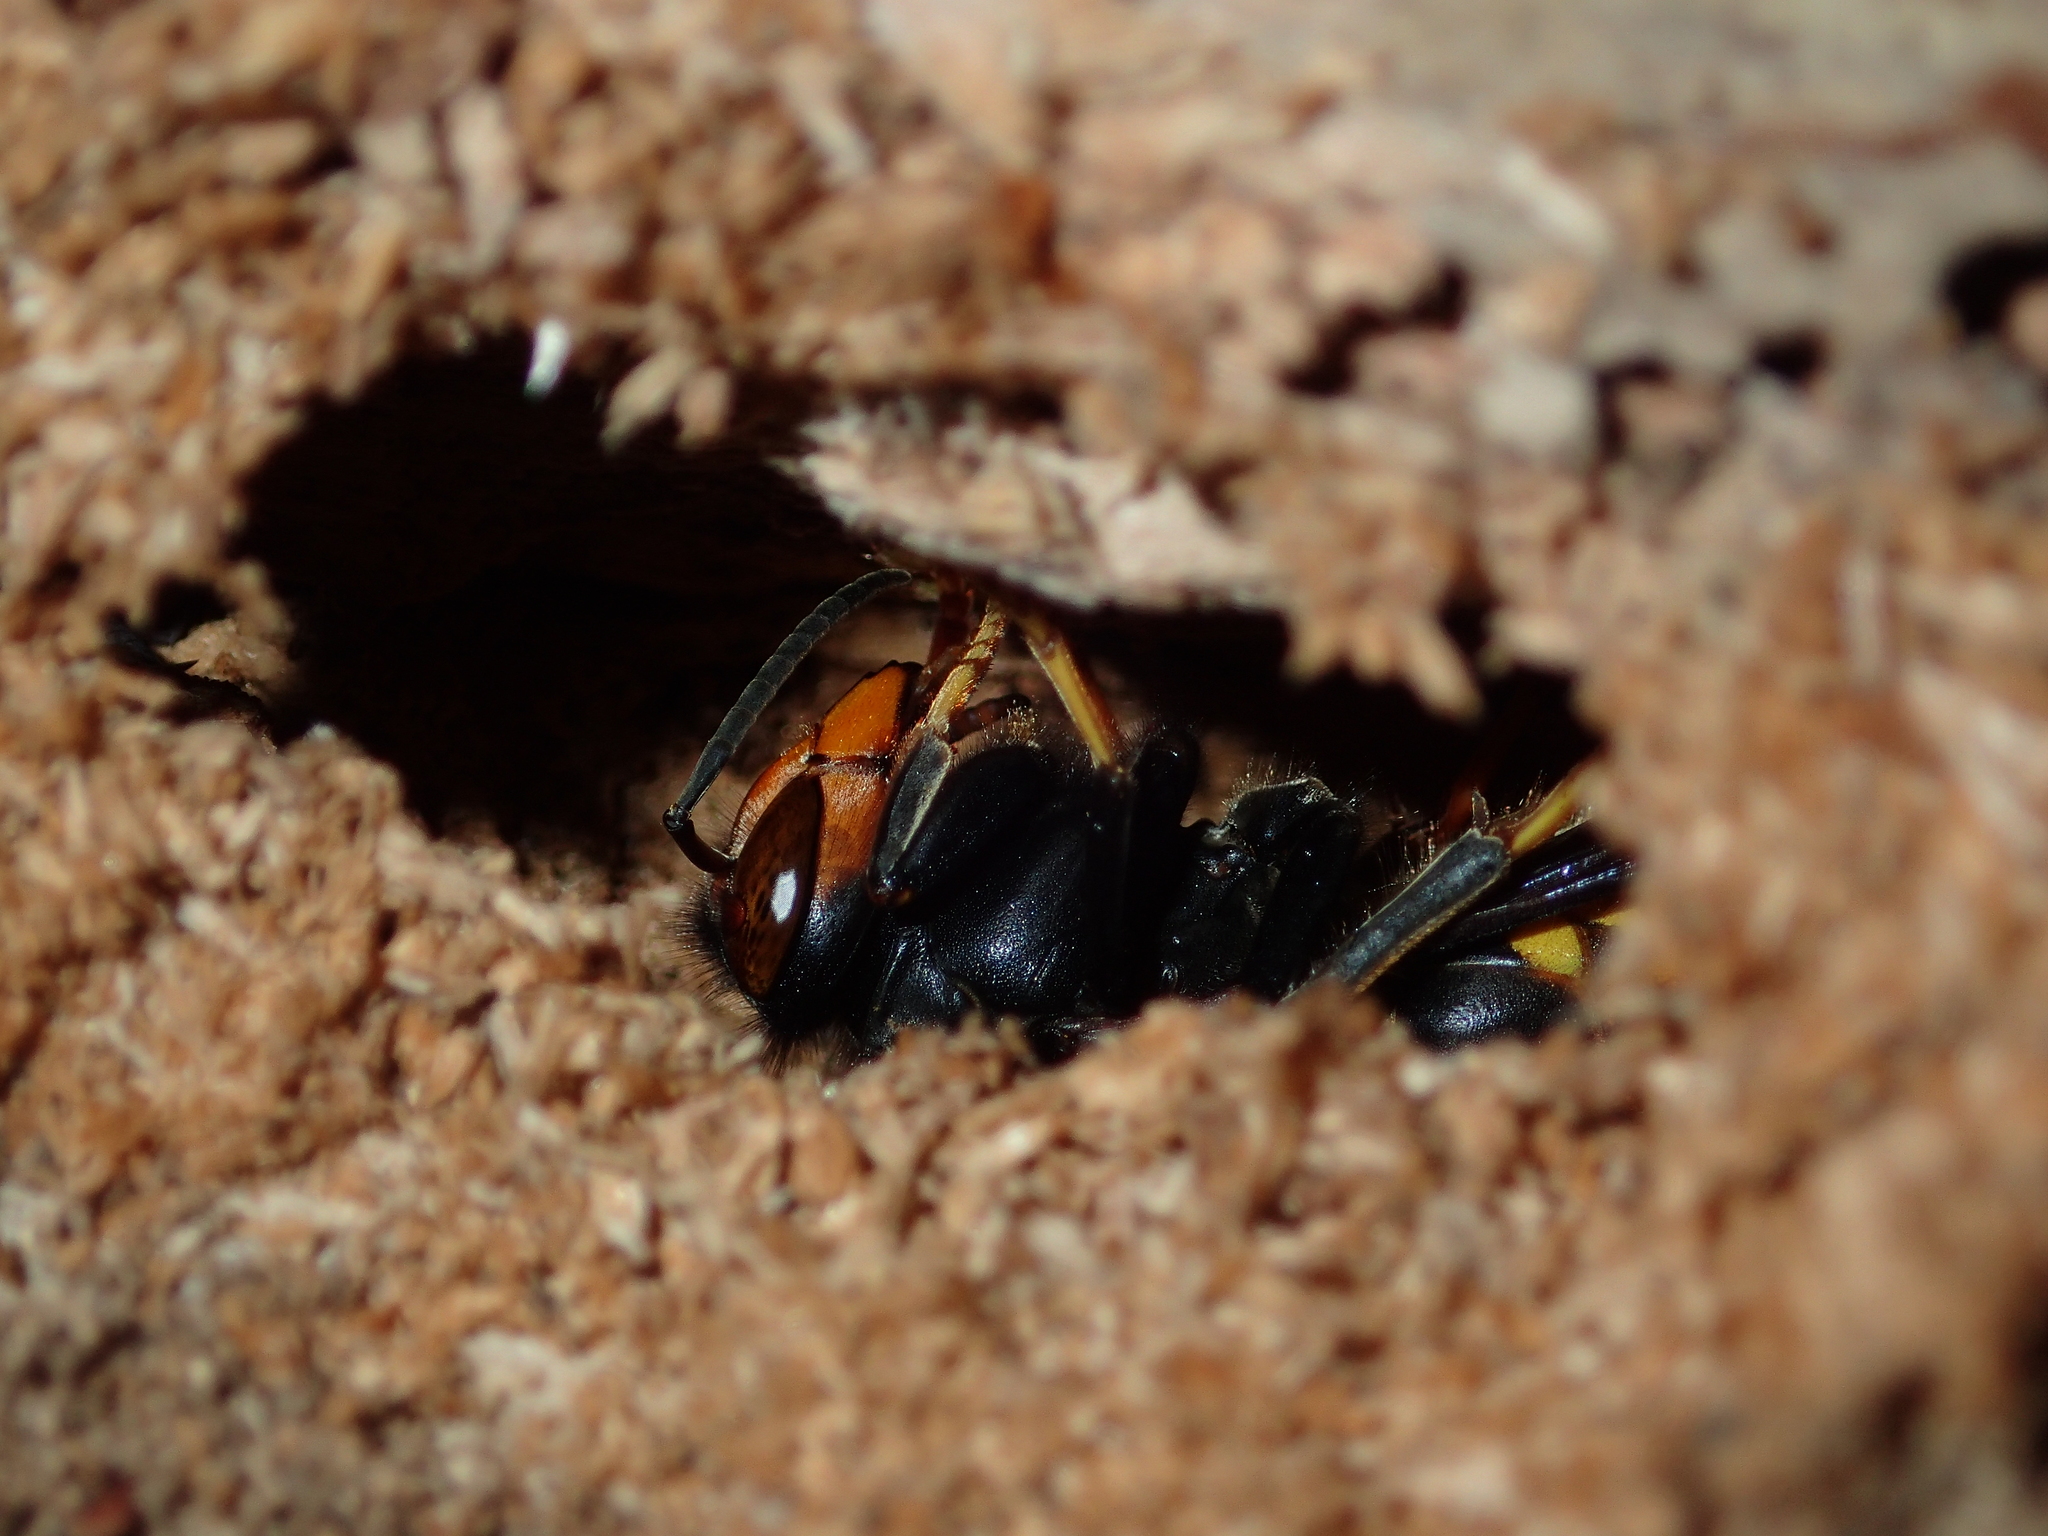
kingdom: Animalia
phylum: Arthropoda
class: Insecta
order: Hymenoptera
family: Vespidae
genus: Vespa
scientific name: Vespa velutina
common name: Asian hornet
